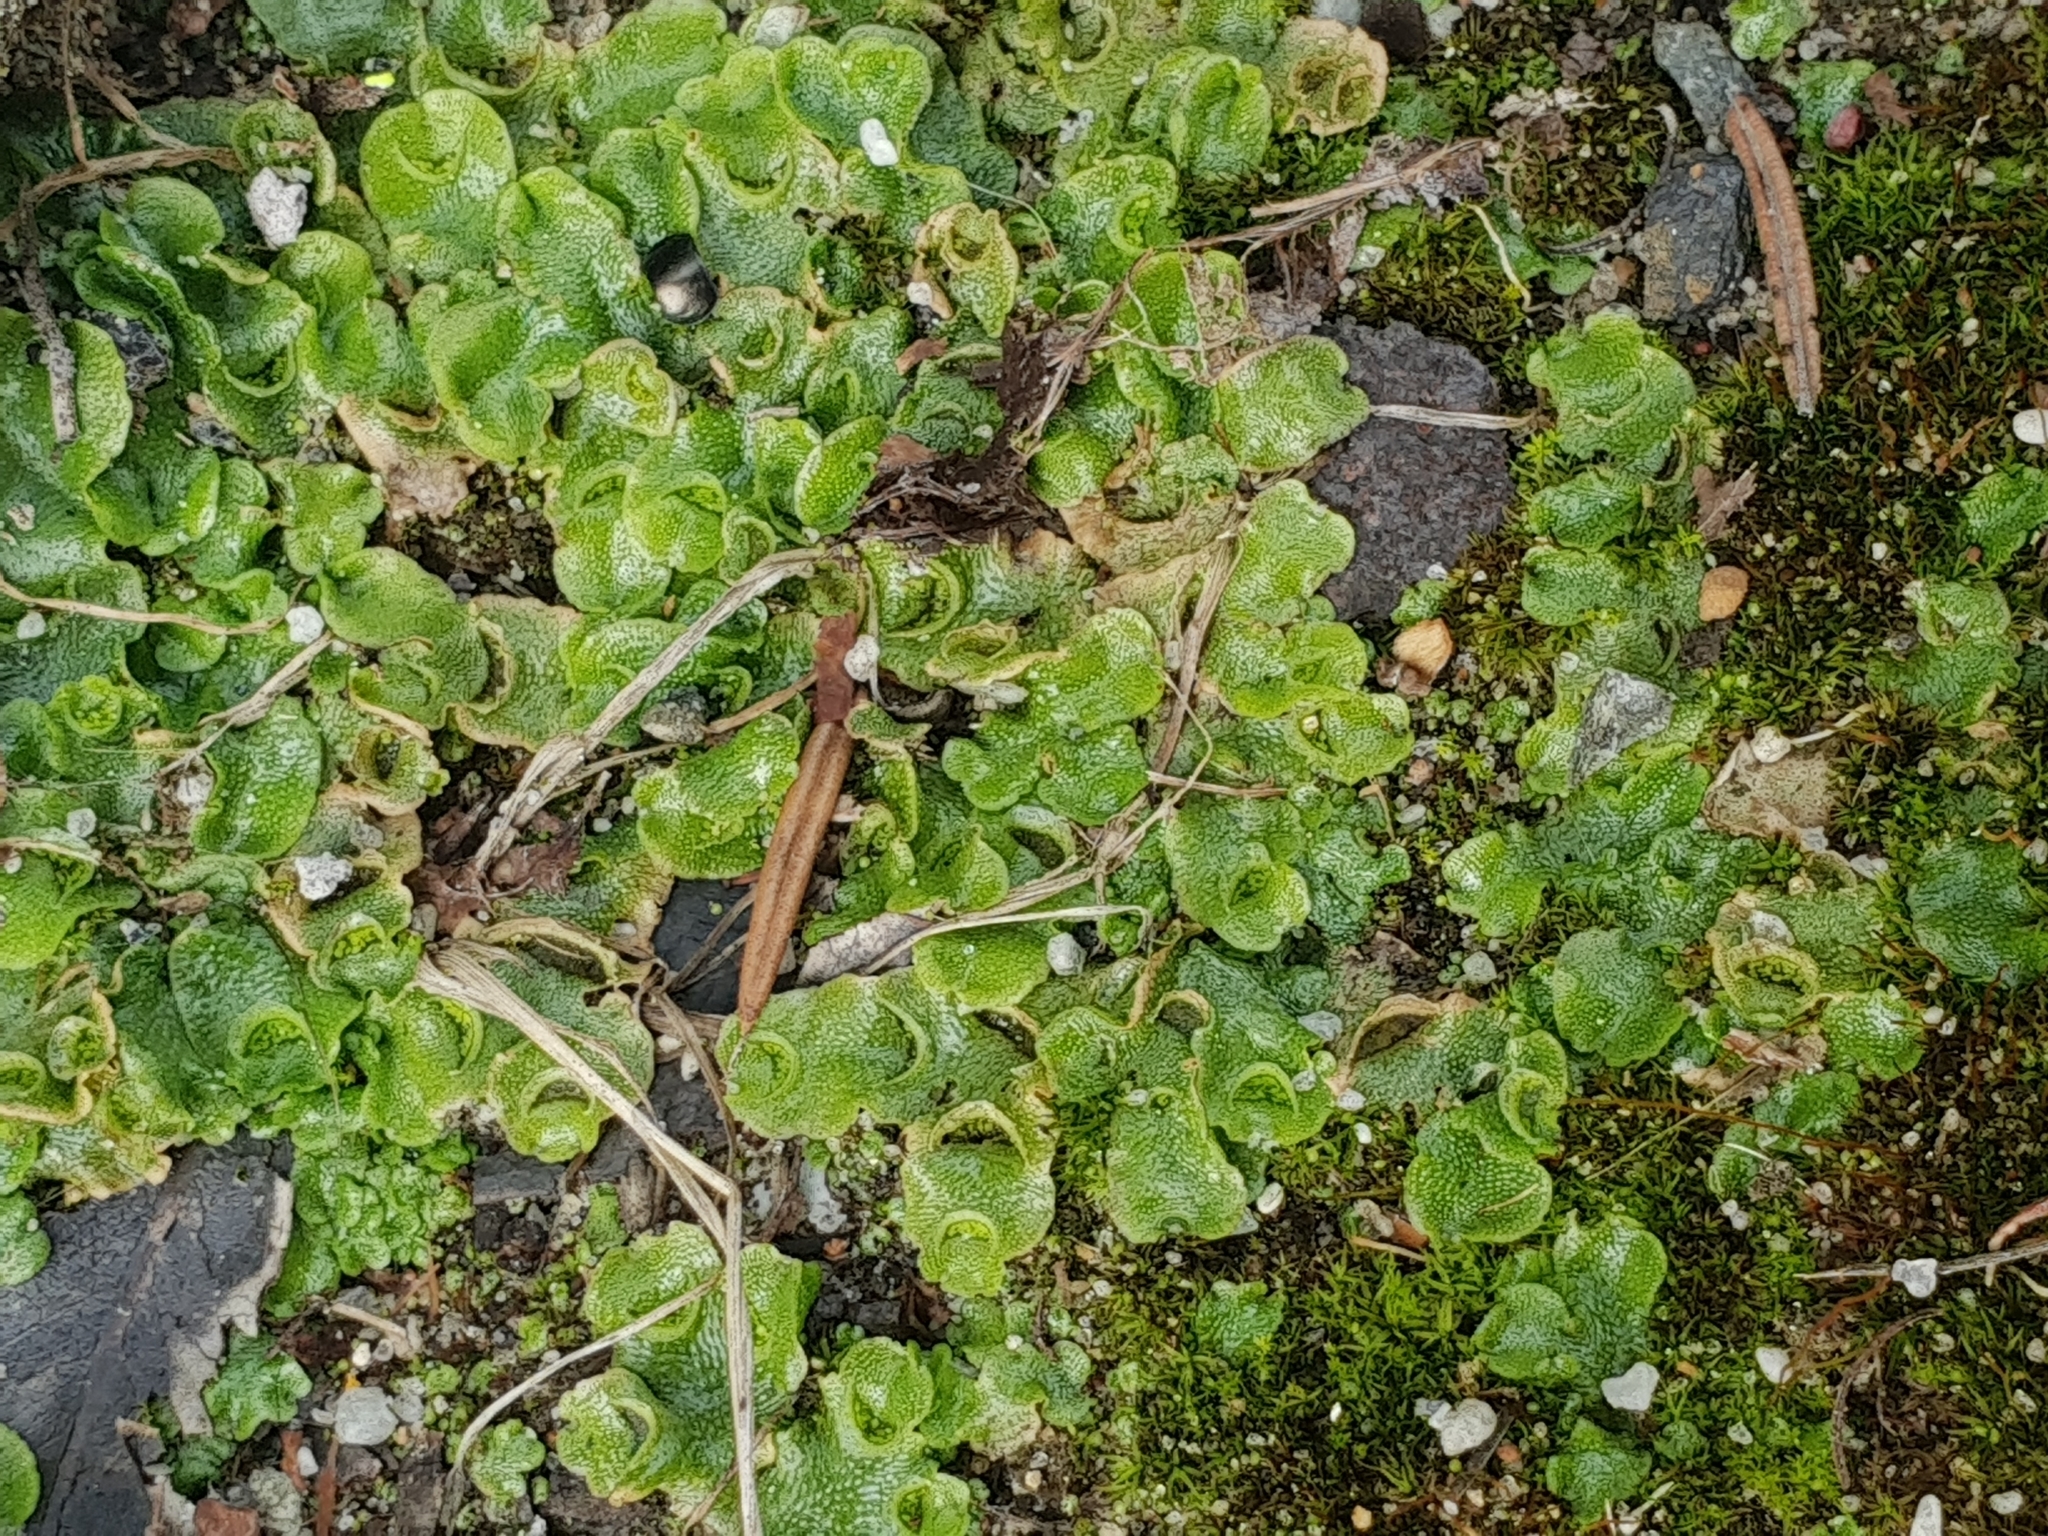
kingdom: Plantae
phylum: Marchantiophyta
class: Marchantiopsida
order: Lunulariales
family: Lunulariaceae
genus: Lunularia
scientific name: Lunularia cruciata
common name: Crescent-cup liverwort
